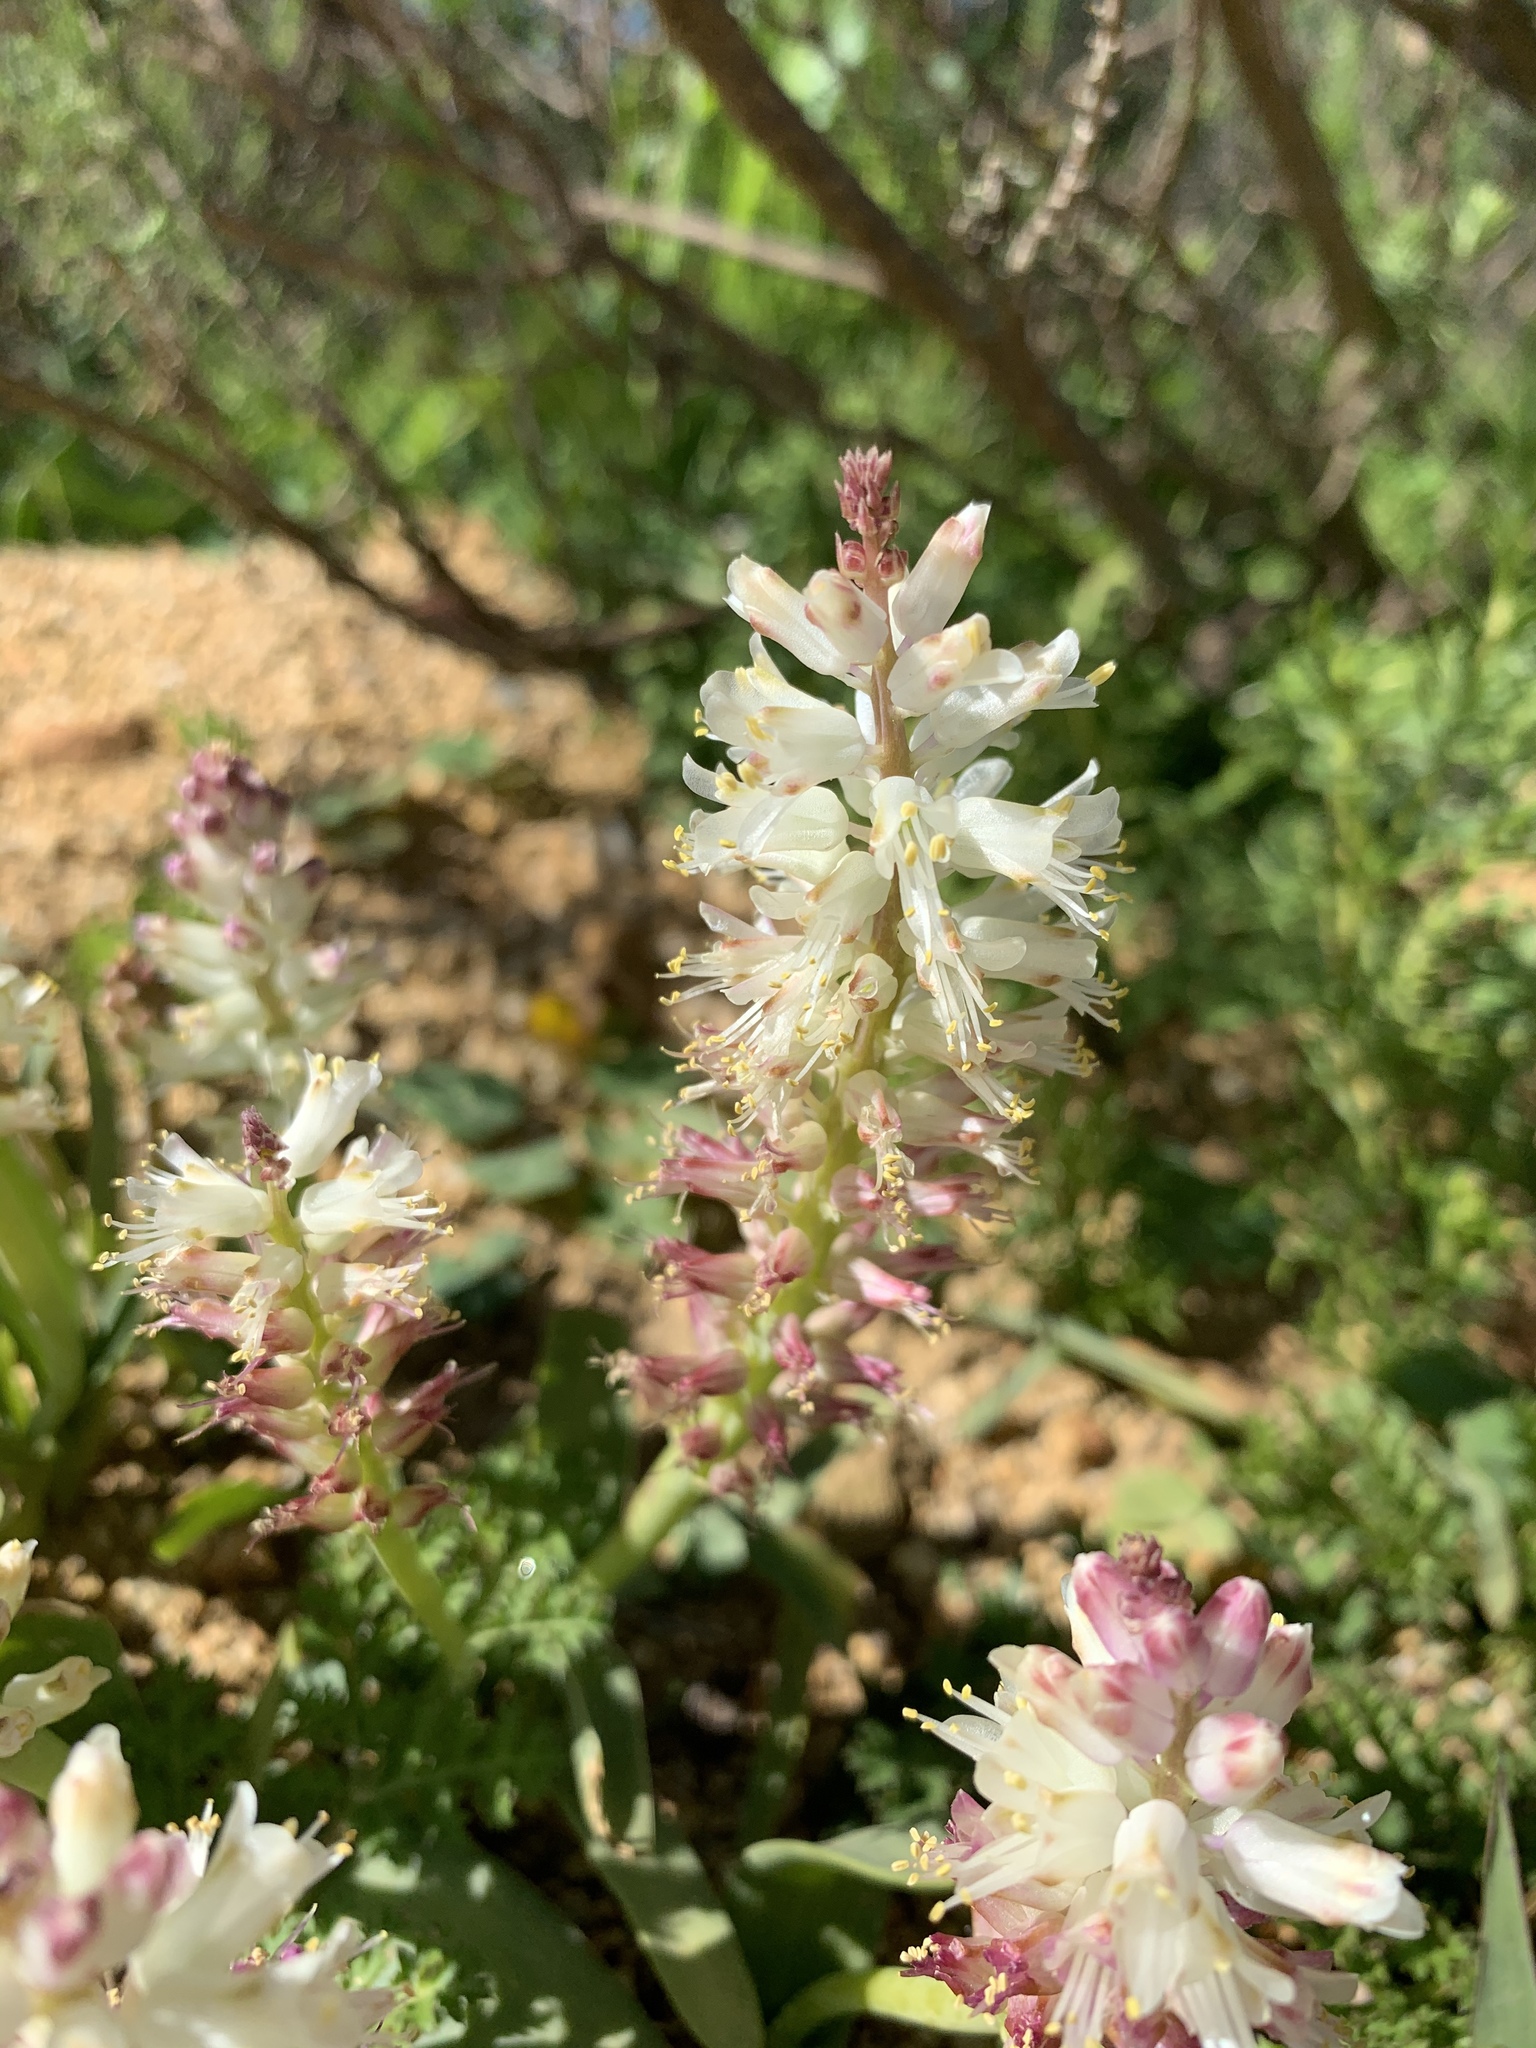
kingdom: Plantae
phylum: Tracheophyta
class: Liliopsida
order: Asparagales
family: Asparagaceae
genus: Lachenalia
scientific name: Lachenalia pallida
